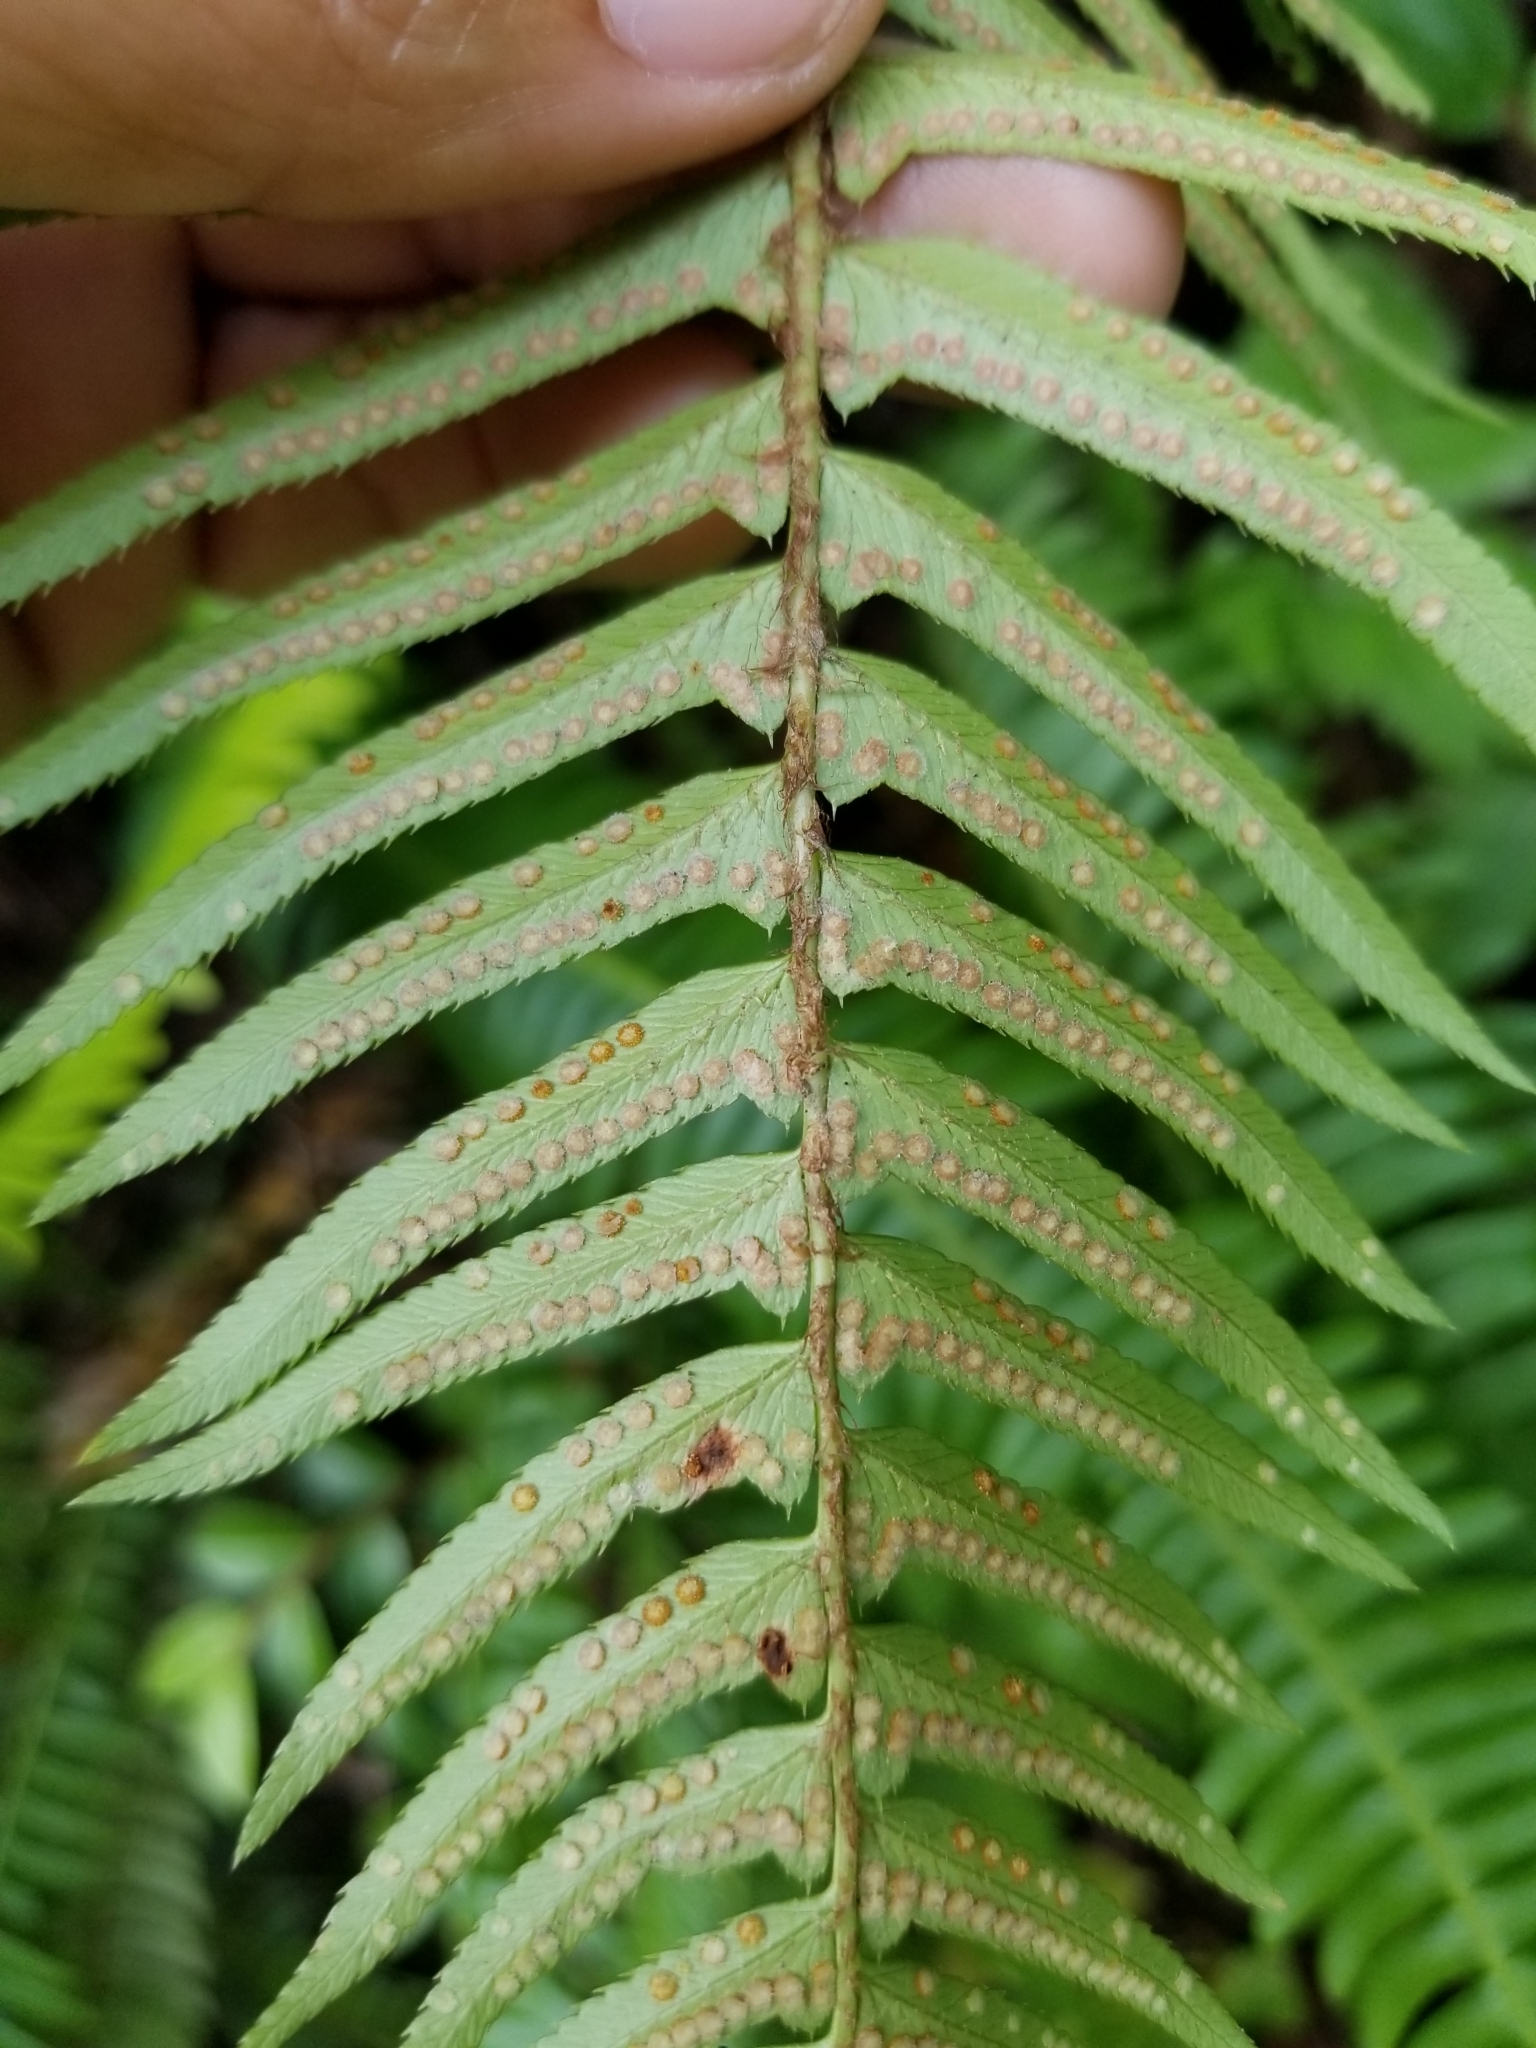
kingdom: Plantae
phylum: Tracheophyta
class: Polypodiopsida
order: Polypodiales
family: Dryopteridaceae
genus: Polystichum
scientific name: Polystichum munitum
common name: Western sword-fern
